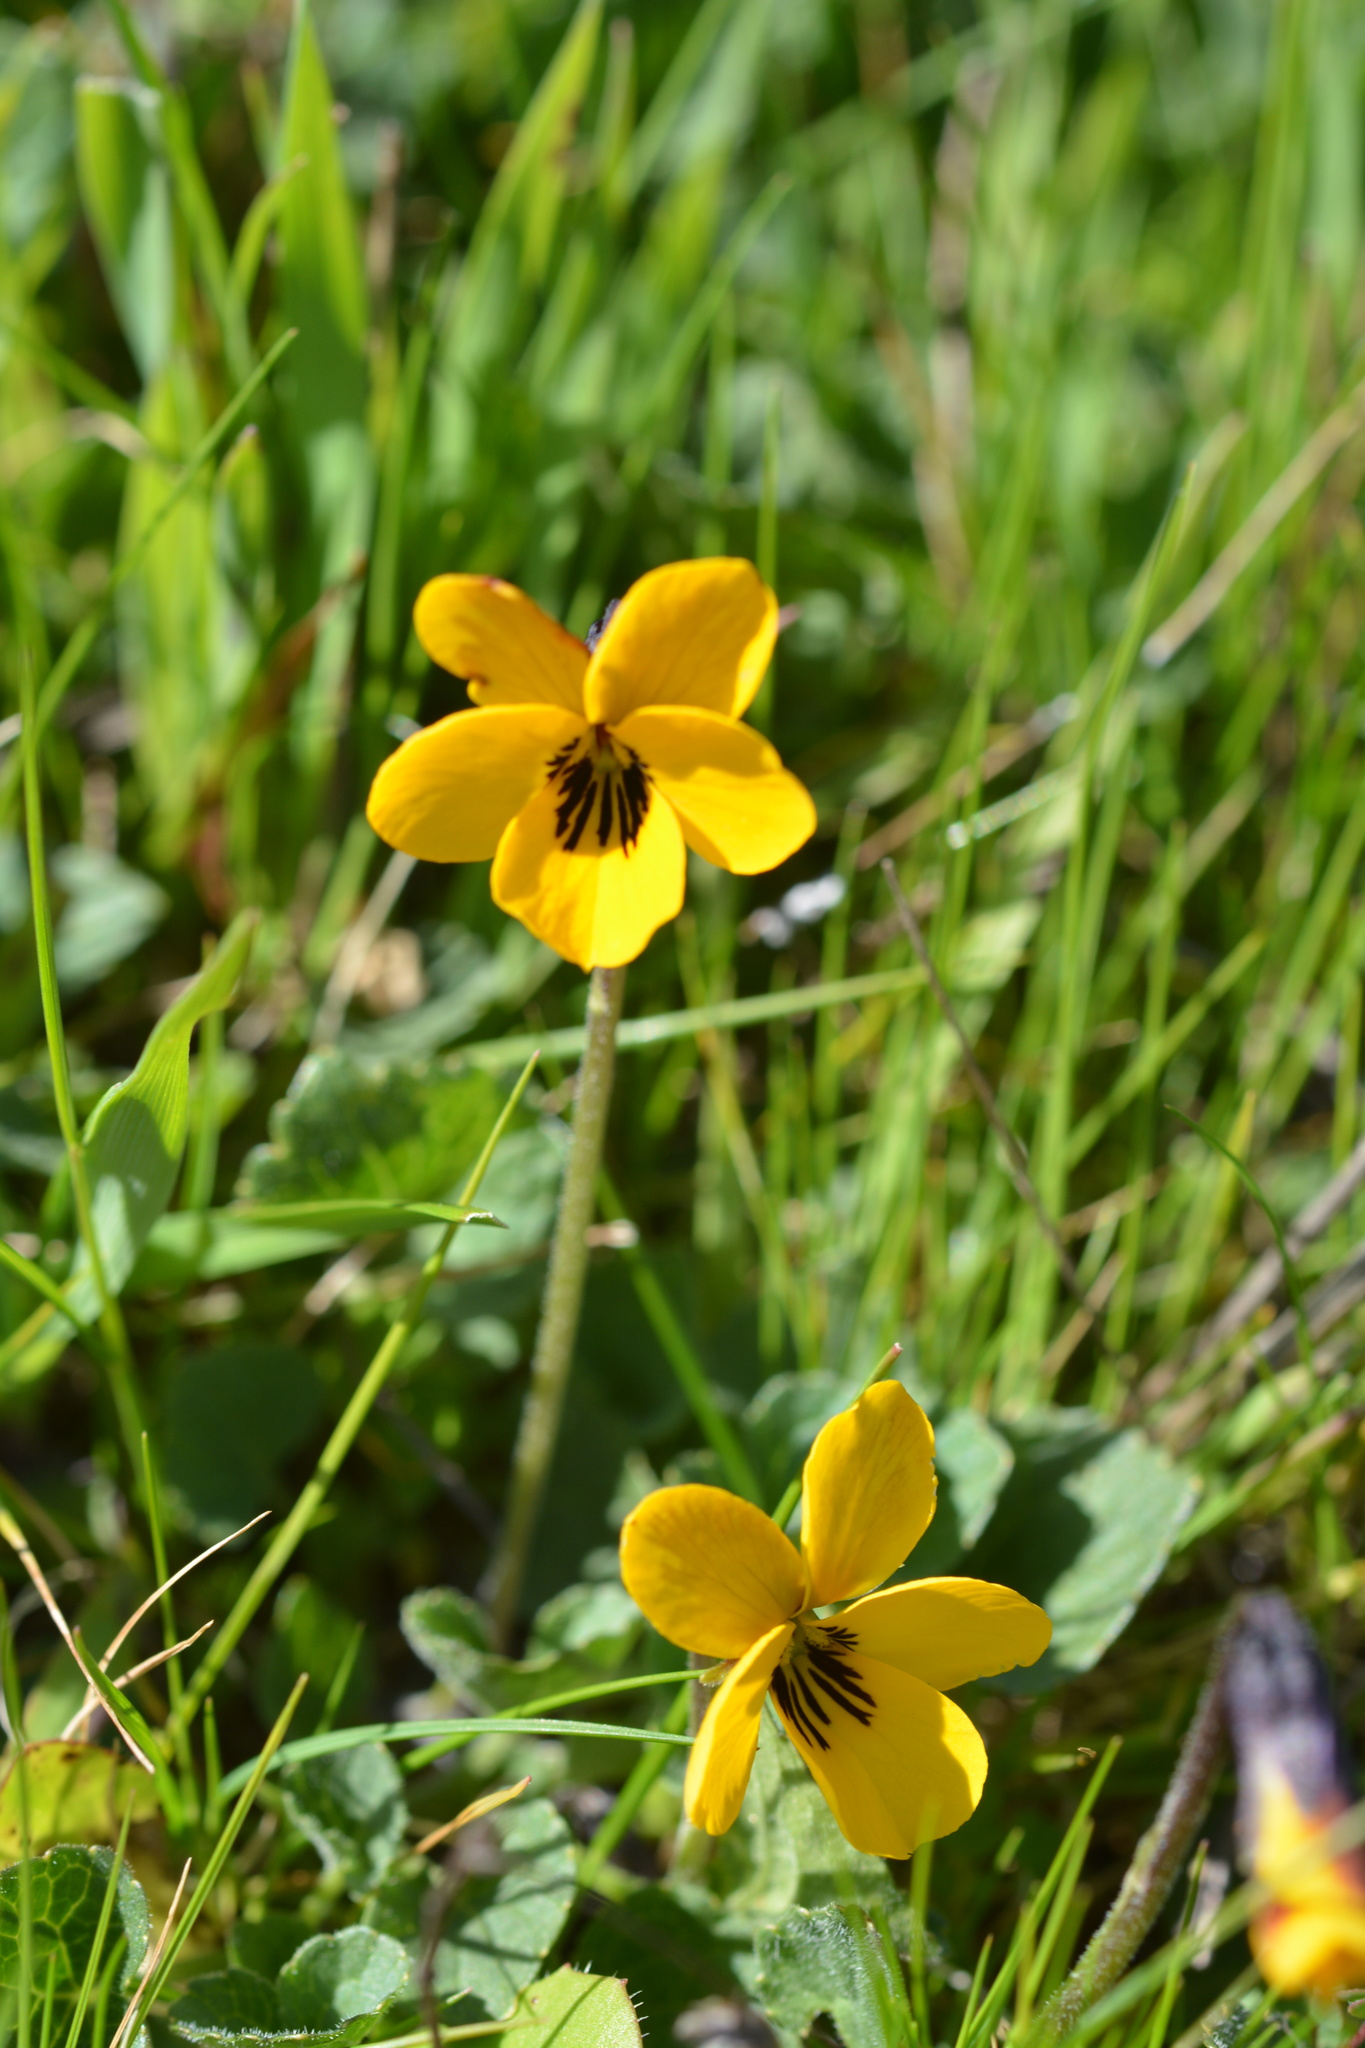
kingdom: Plantae
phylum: Tracheophyta
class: Magnoliopsida
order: Malpighiales
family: Violaceae
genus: Viola
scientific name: Viola pedunculata
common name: California golden violet
